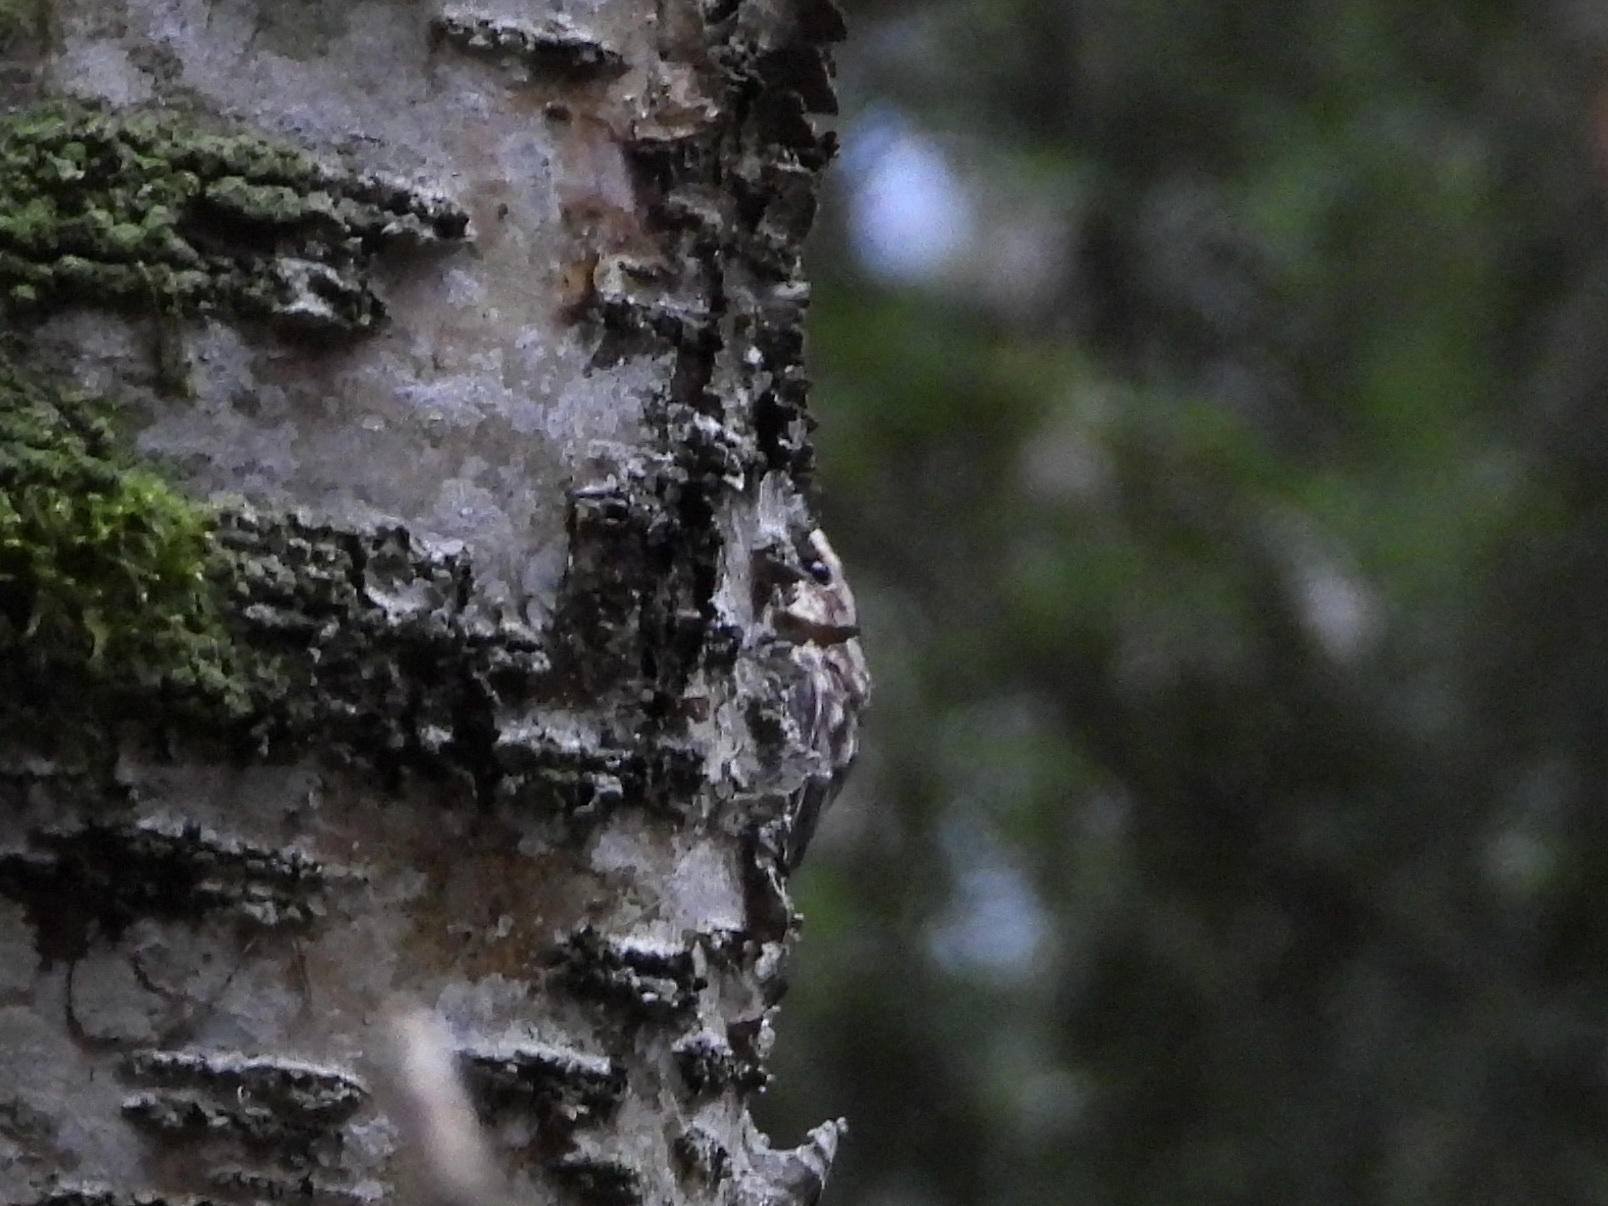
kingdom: Animalia
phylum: Chordata
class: Aves
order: Passeriformes
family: Certhiidae
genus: Certhia
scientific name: Certhia americana
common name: Brown creeper
